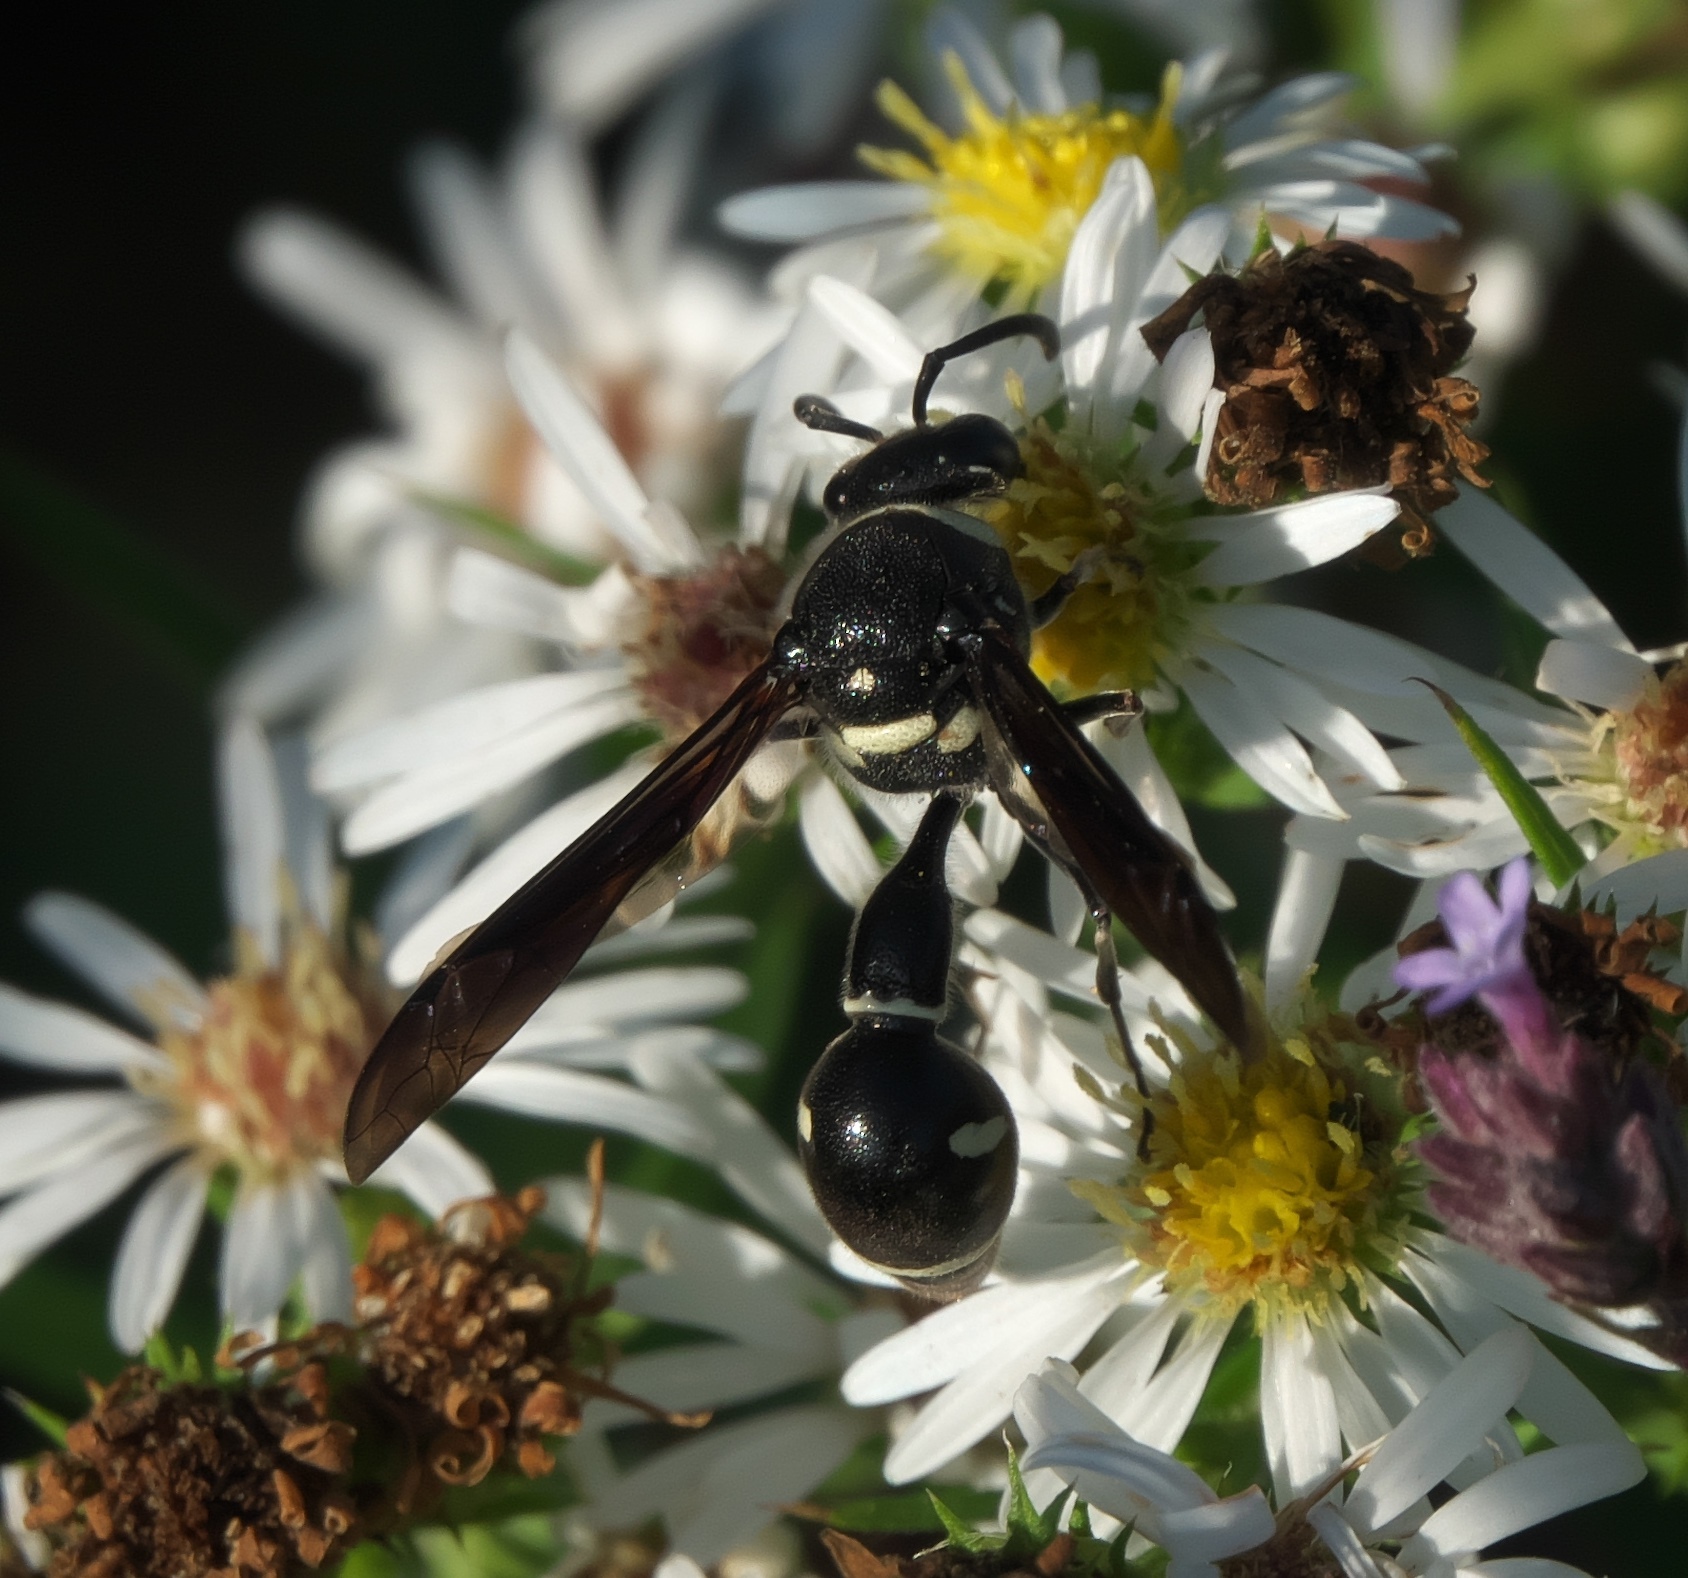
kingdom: Animalia
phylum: Arthropoda
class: Insecta
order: Hymenoptera
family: Vespidae
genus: Eumenes
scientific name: Eumenes fraternus
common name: Fraternal potter wasp
